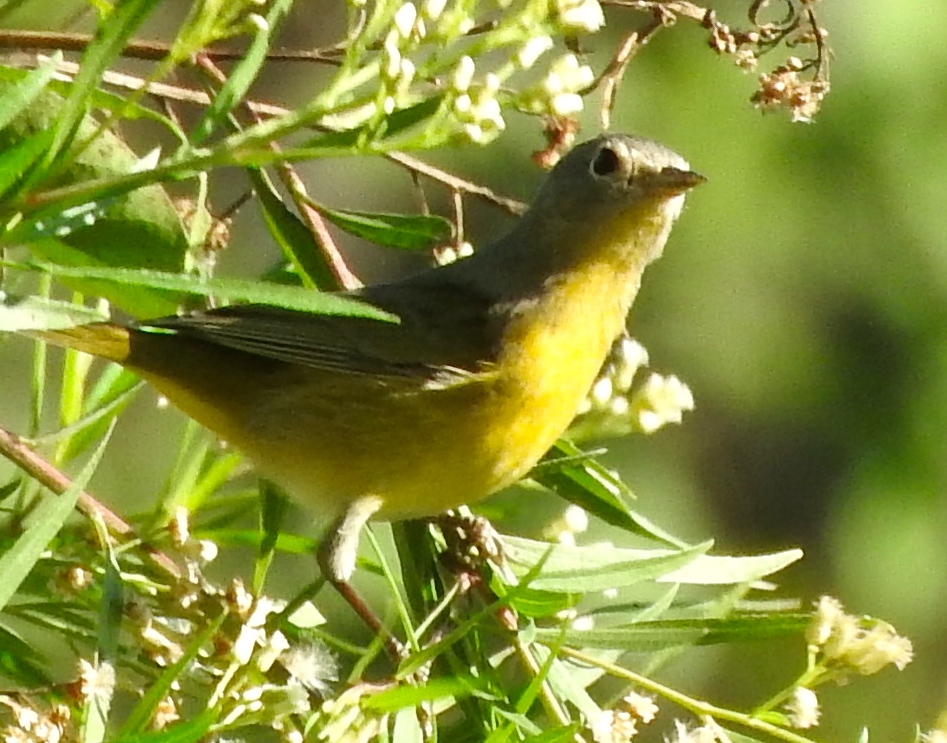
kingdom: Animalia
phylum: Chordata
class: Aves
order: Passeriformes
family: Parulidae
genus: Leiothlypis
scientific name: Leiothlypis ruficapilla
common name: Nashville warbler
